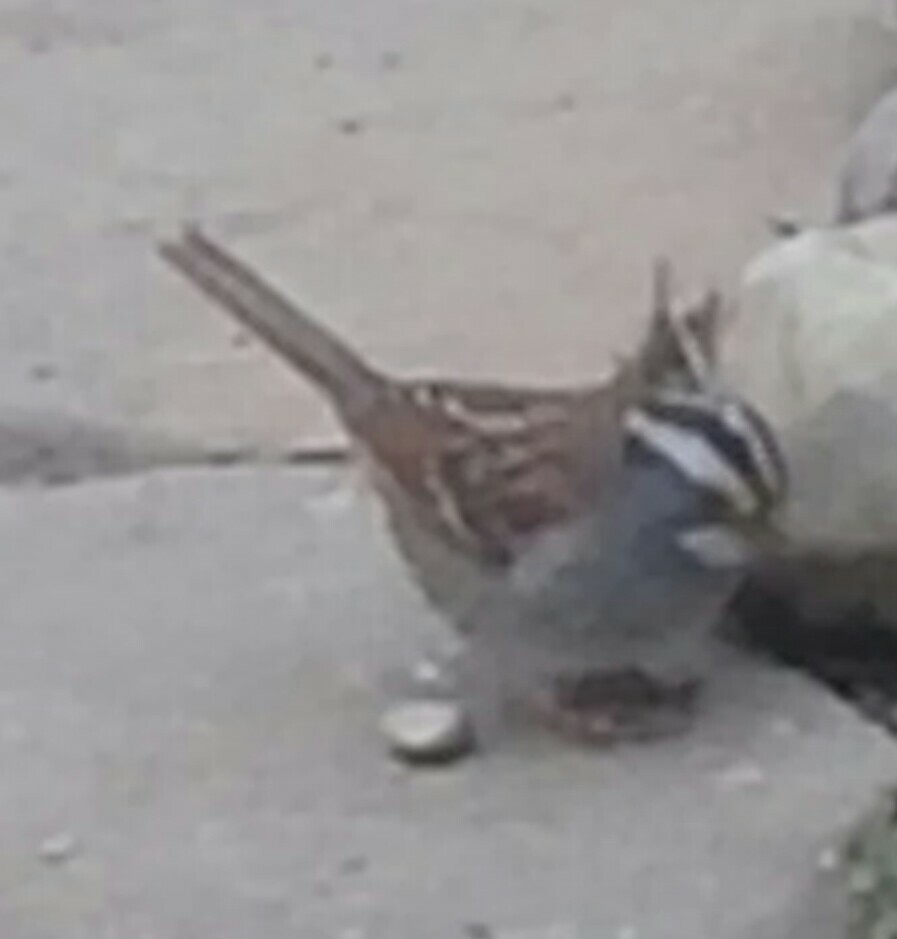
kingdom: Animalia
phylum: Chordata
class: Aves
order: Passeriformes
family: Passerellidae
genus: Zonotrichia
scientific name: Zonotrichia albicollis
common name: White-throated sparrow
